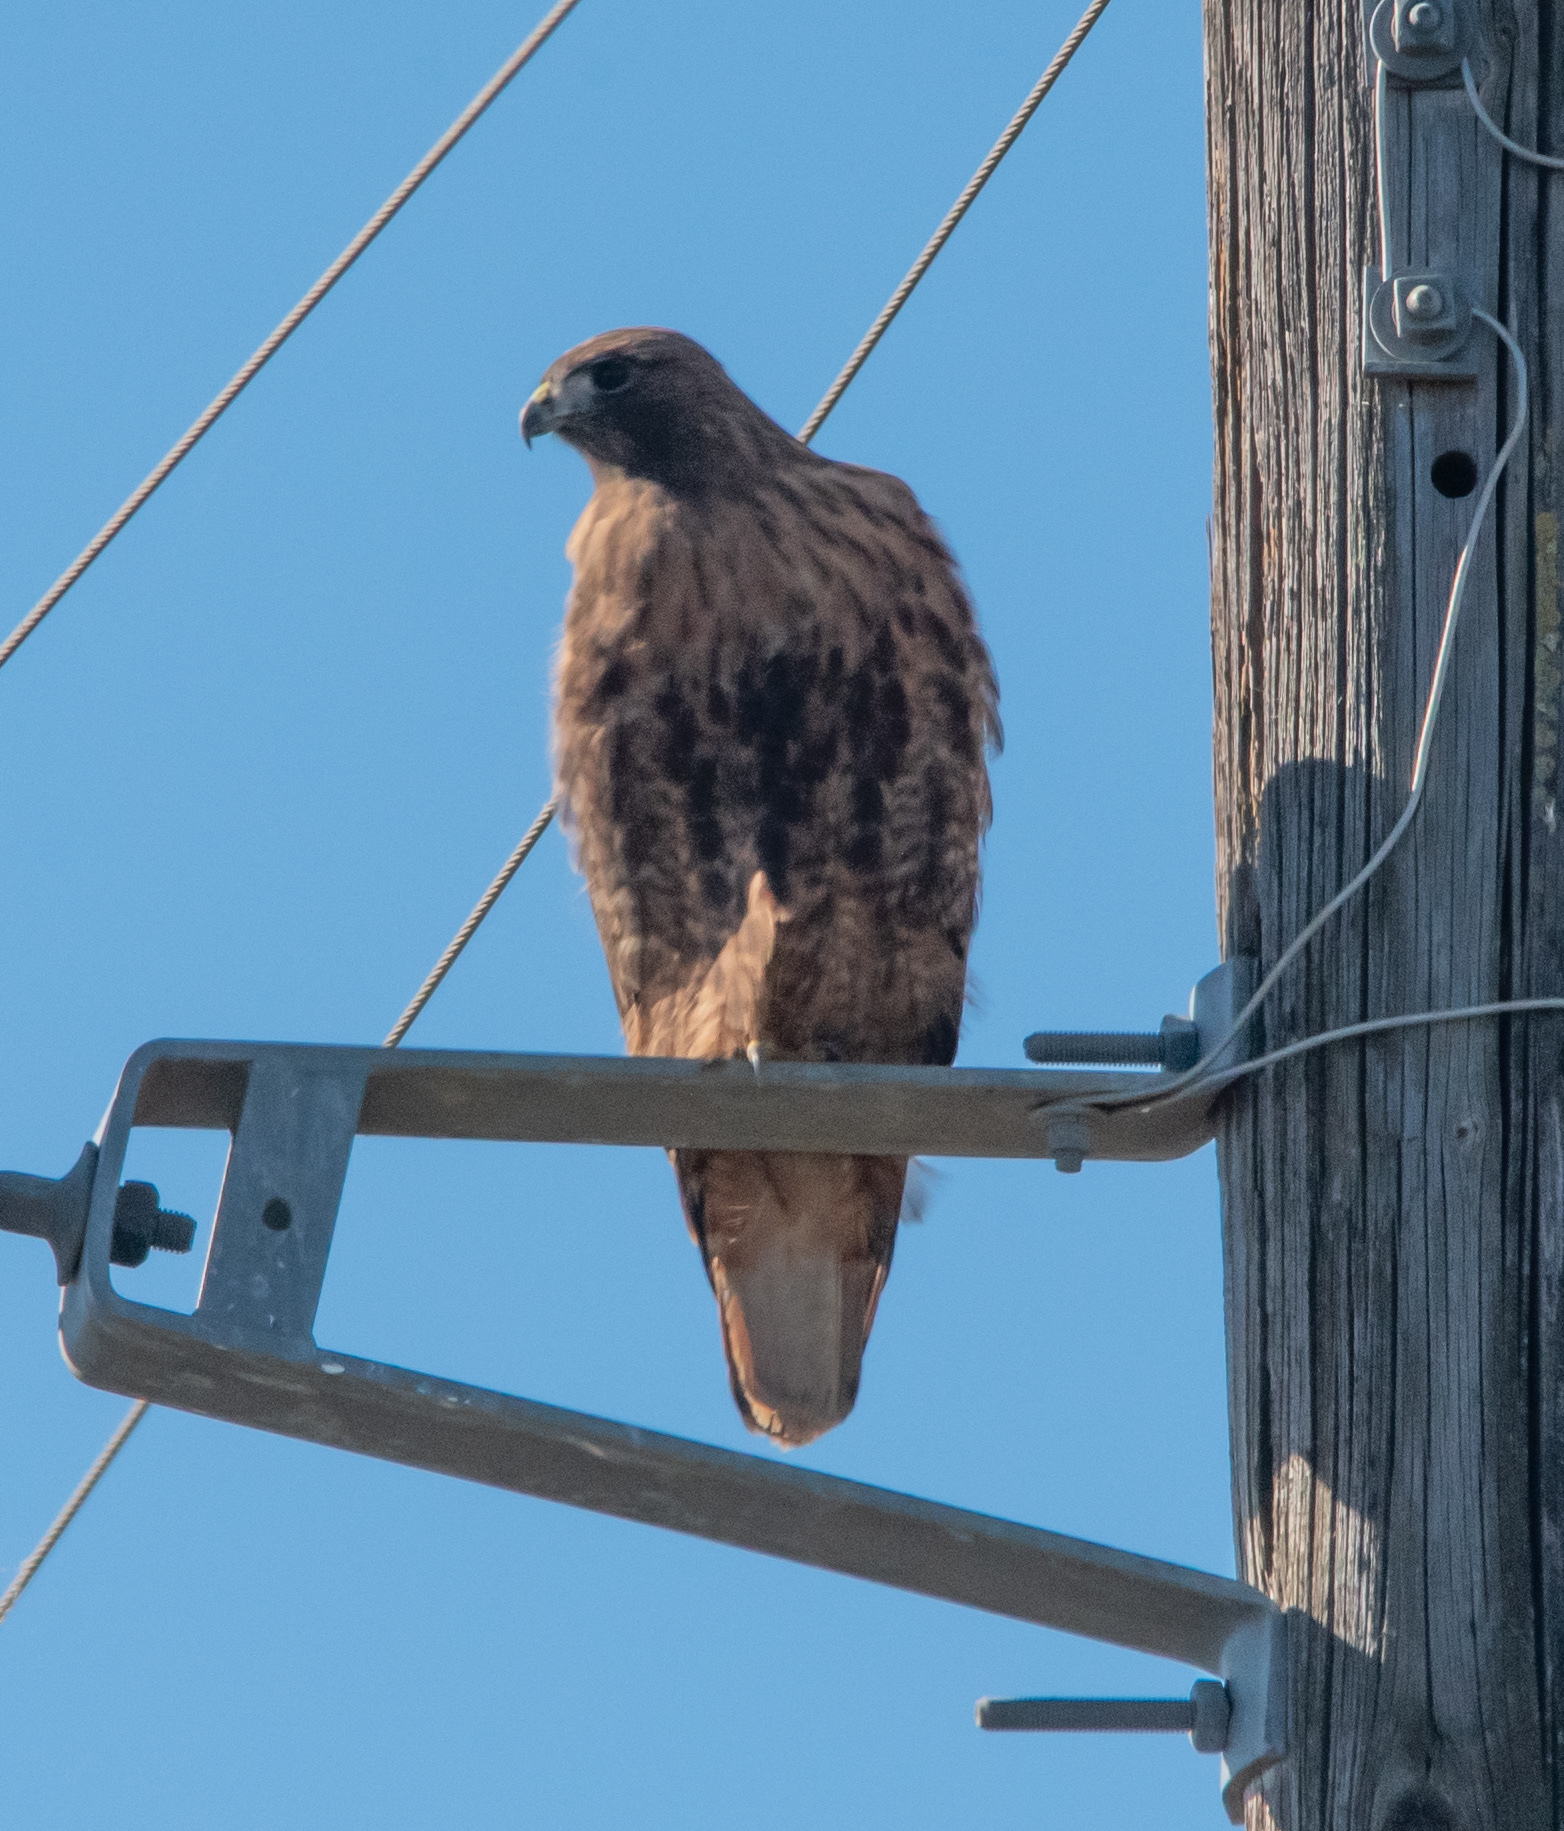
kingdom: Animalia
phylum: Chordata
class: Aves
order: Accipitriformes
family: Accipitridae
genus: Buteo
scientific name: Buteo jamaicensis
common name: Red-tailed hawk
